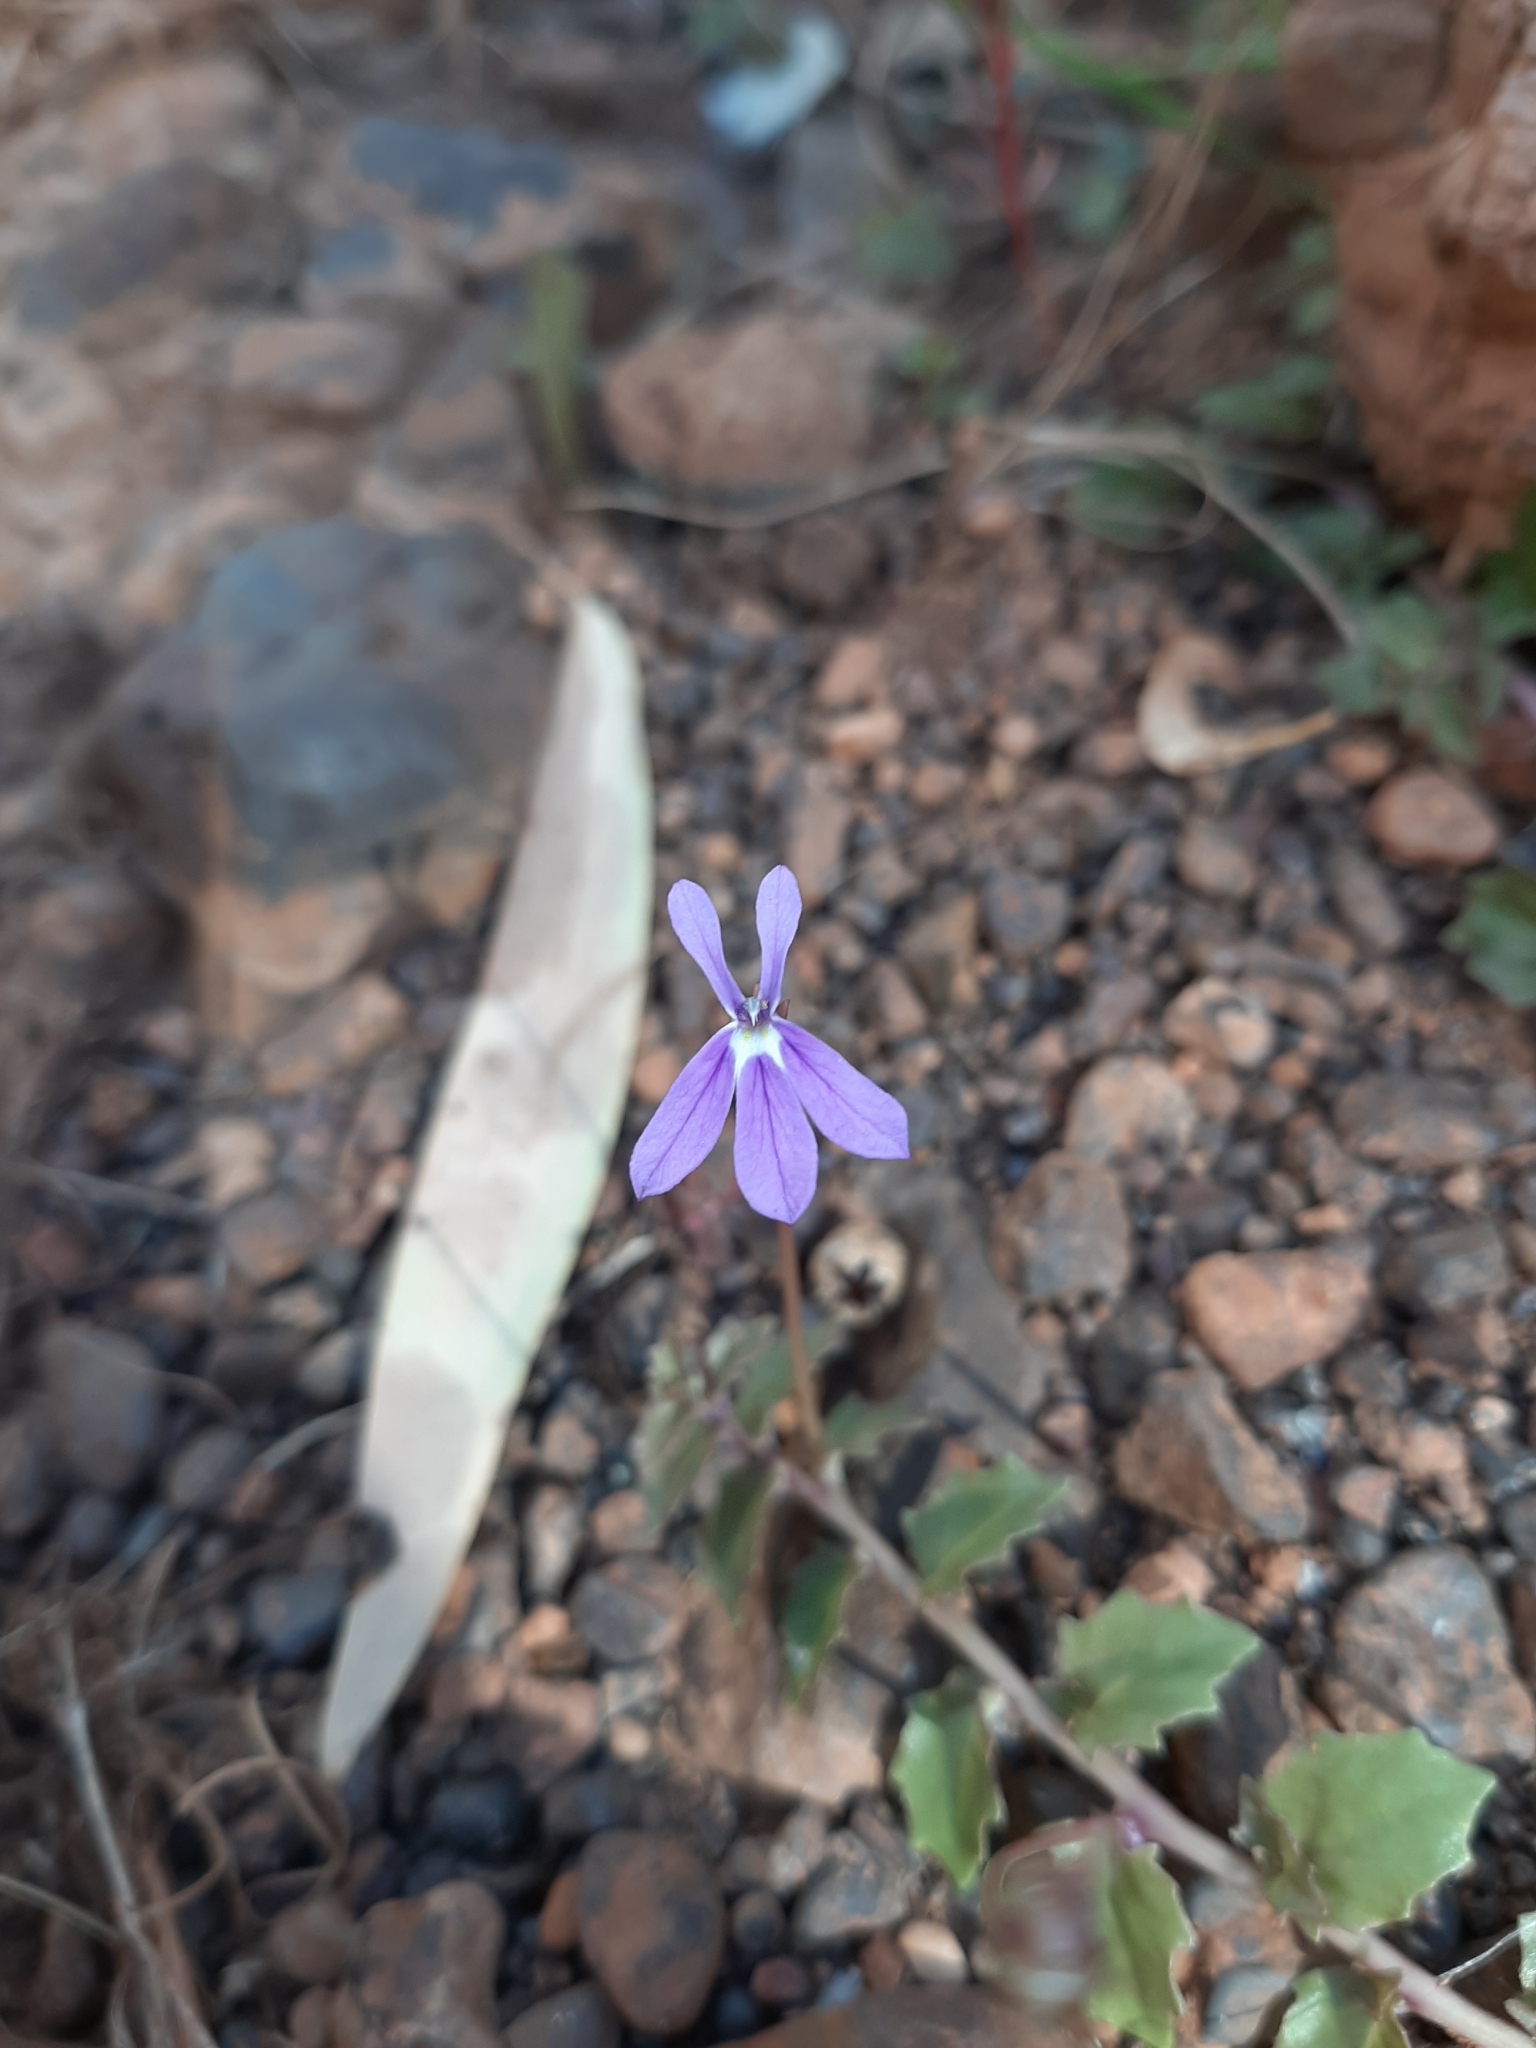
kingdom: Plantae
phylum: Tracheophyta
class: Magnoliopsida
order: Asterales
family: Campanulaceae
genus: Lobelia
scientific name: Lobelia arnhemiaca
